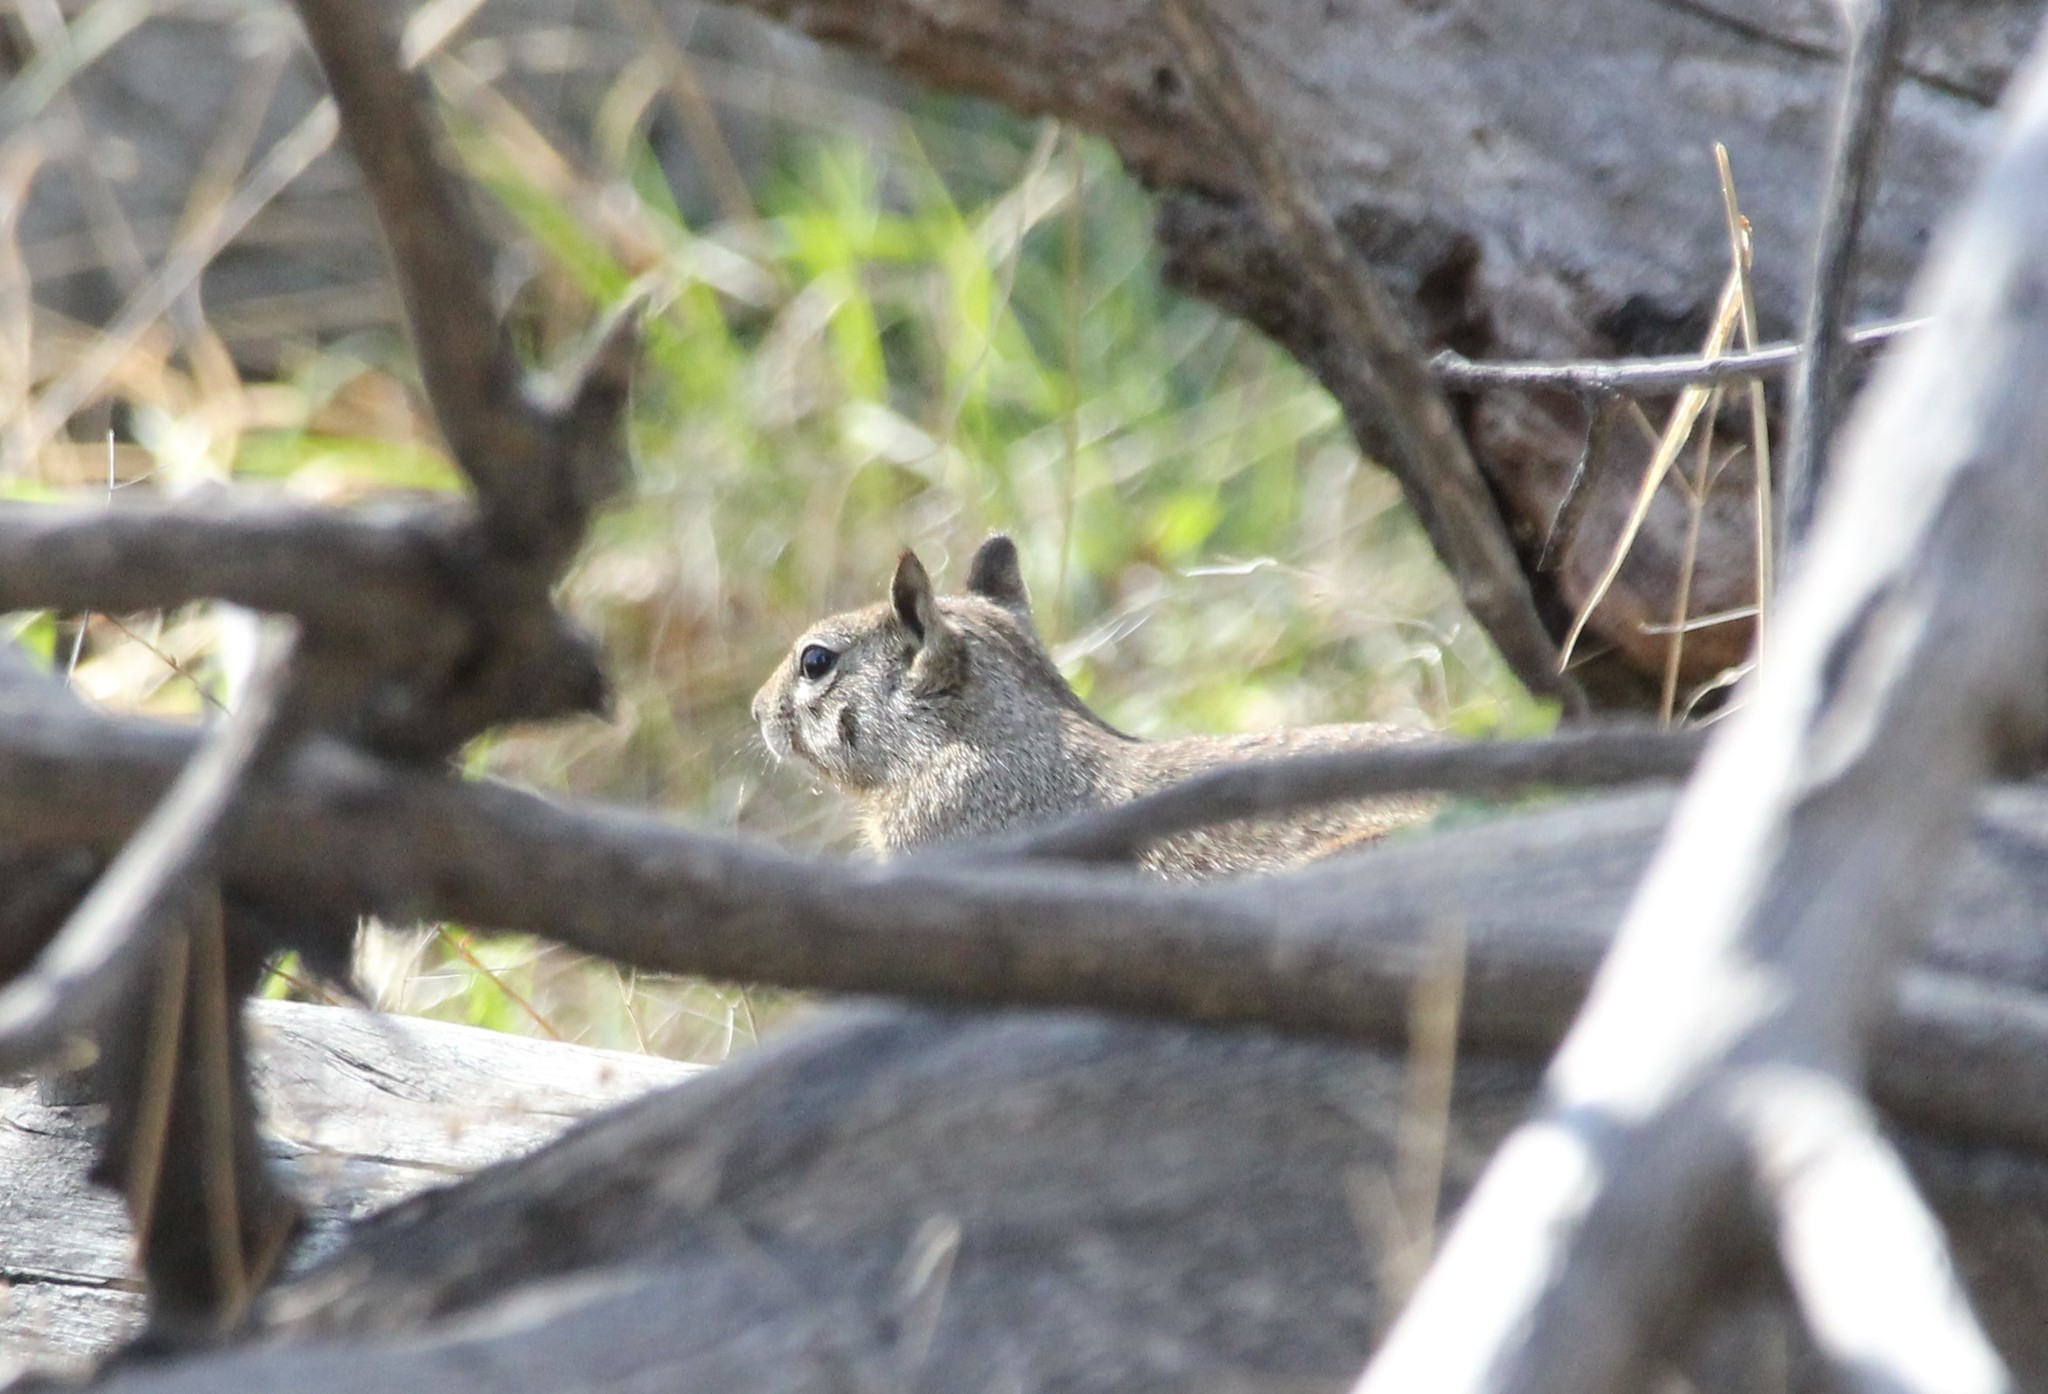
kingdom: Animalia
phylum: Chordata
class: Mammalia
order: Rodentia
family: Sciuridae
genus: Otospermophilus
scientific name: Otospermophilus beecheyi
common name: California ground squirrel
